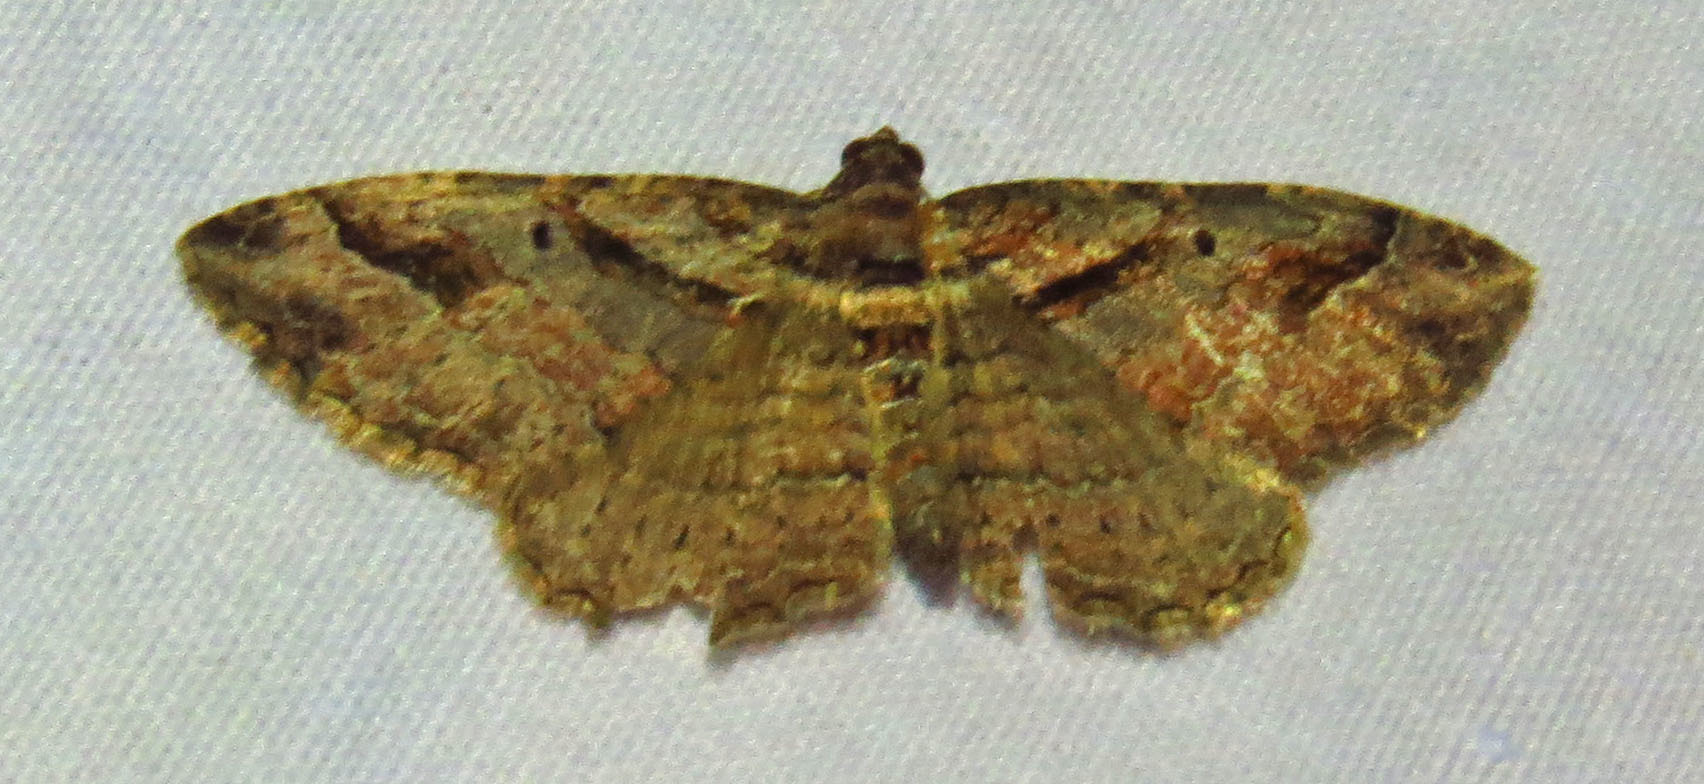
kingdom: Animalia
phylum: Arthropoda
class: Insecta
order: Lepidoptera
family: Geometridae
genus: Costaconvexa
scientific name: Costaconvexa centrostrigaria
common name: Bent-line carpet
